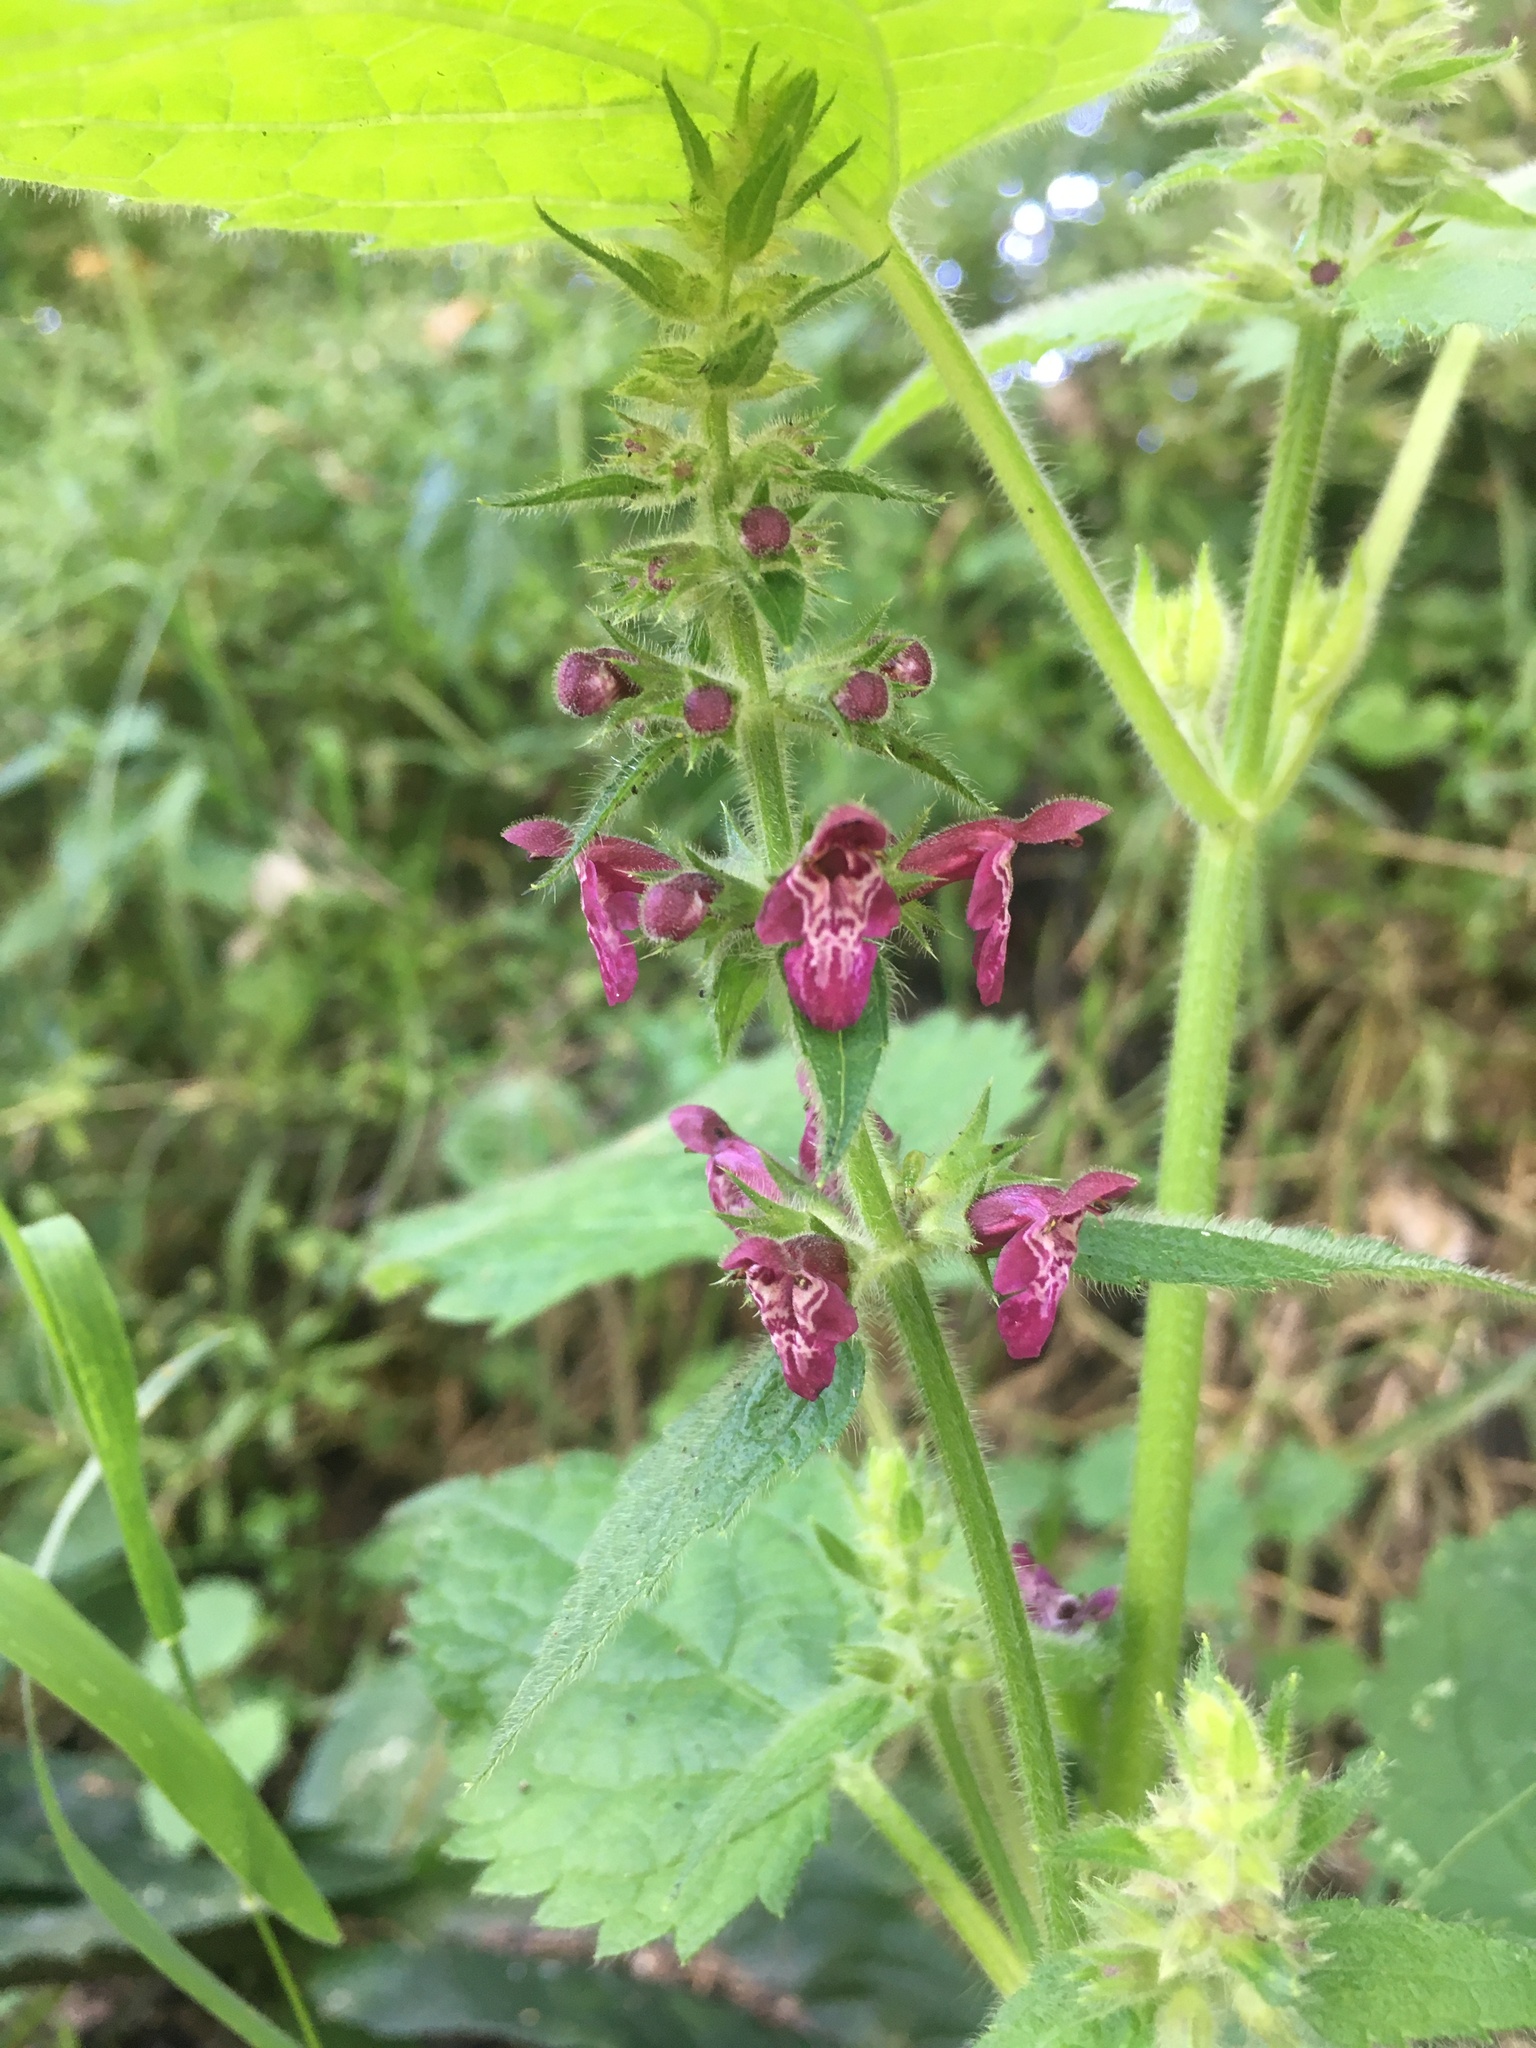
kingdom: Plantae
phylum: Tracheophyta
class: Magnoliopsida
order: Lamiales
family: Lamiaceae
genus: Stachys
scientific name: Stachys sylvatica
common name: Hedge woundwort
